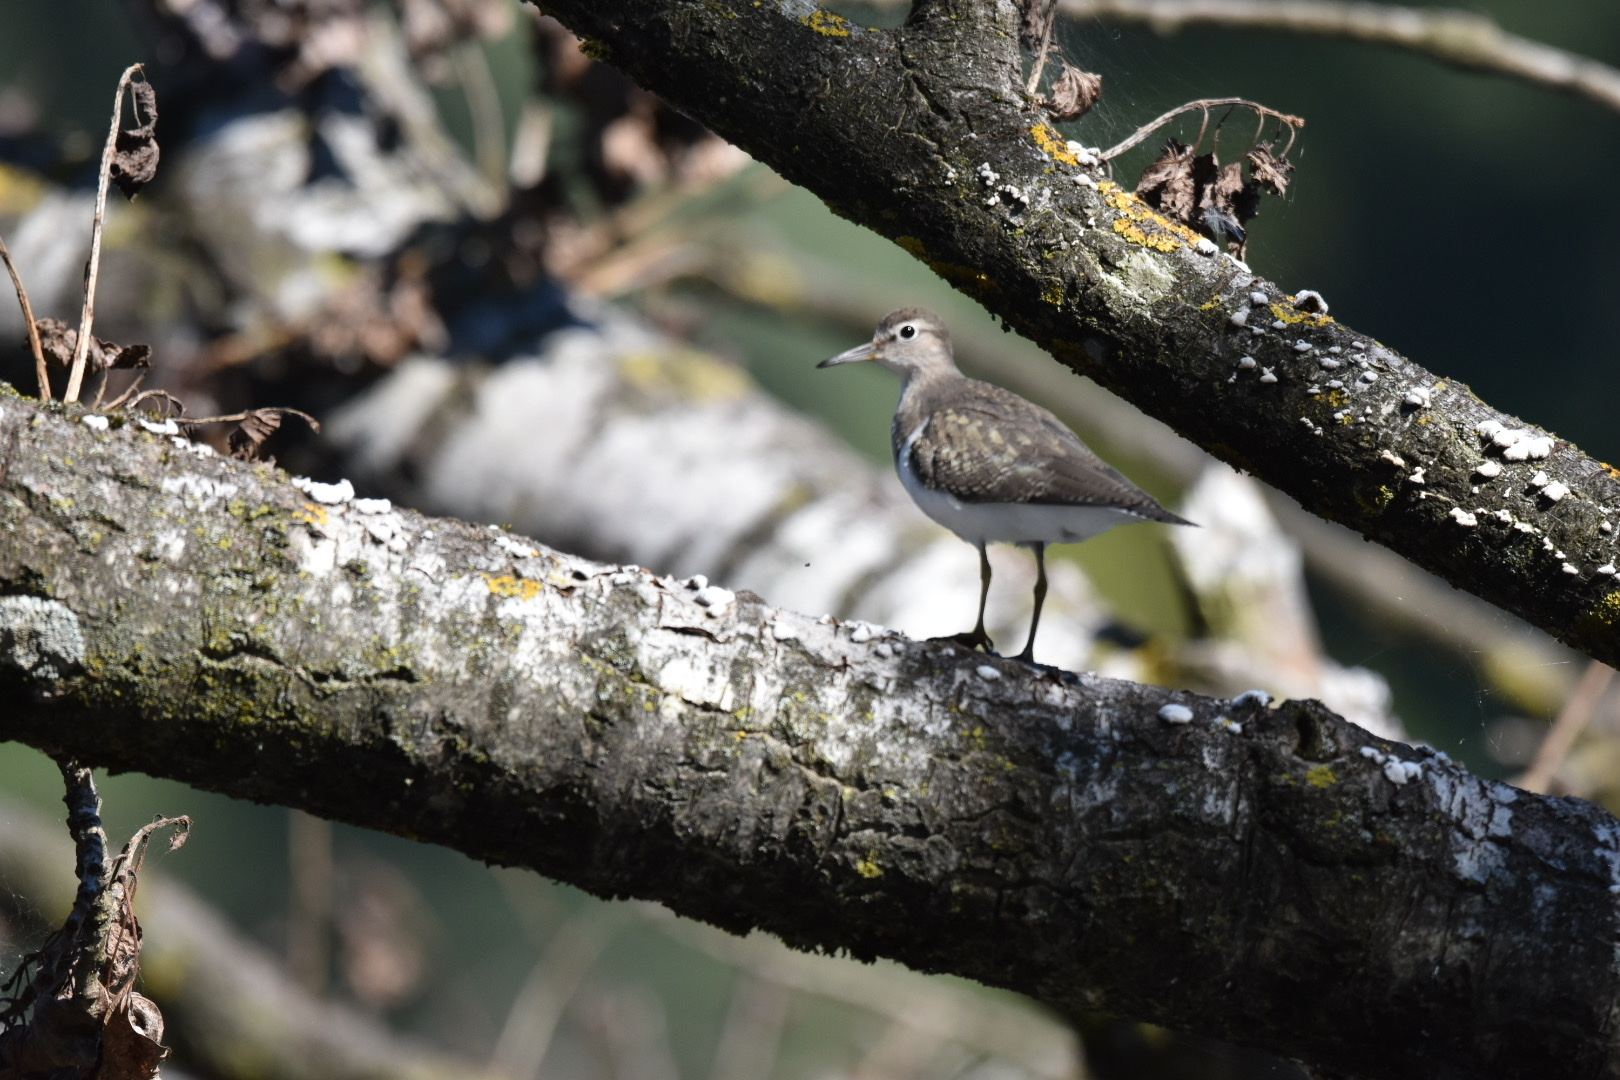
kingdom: Animalia
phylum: Chordata
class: Aves
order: Charadriiformes
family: Scolopacidae
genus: Actitis
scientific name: Actitis hypoleucos
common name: Common sandpiper
